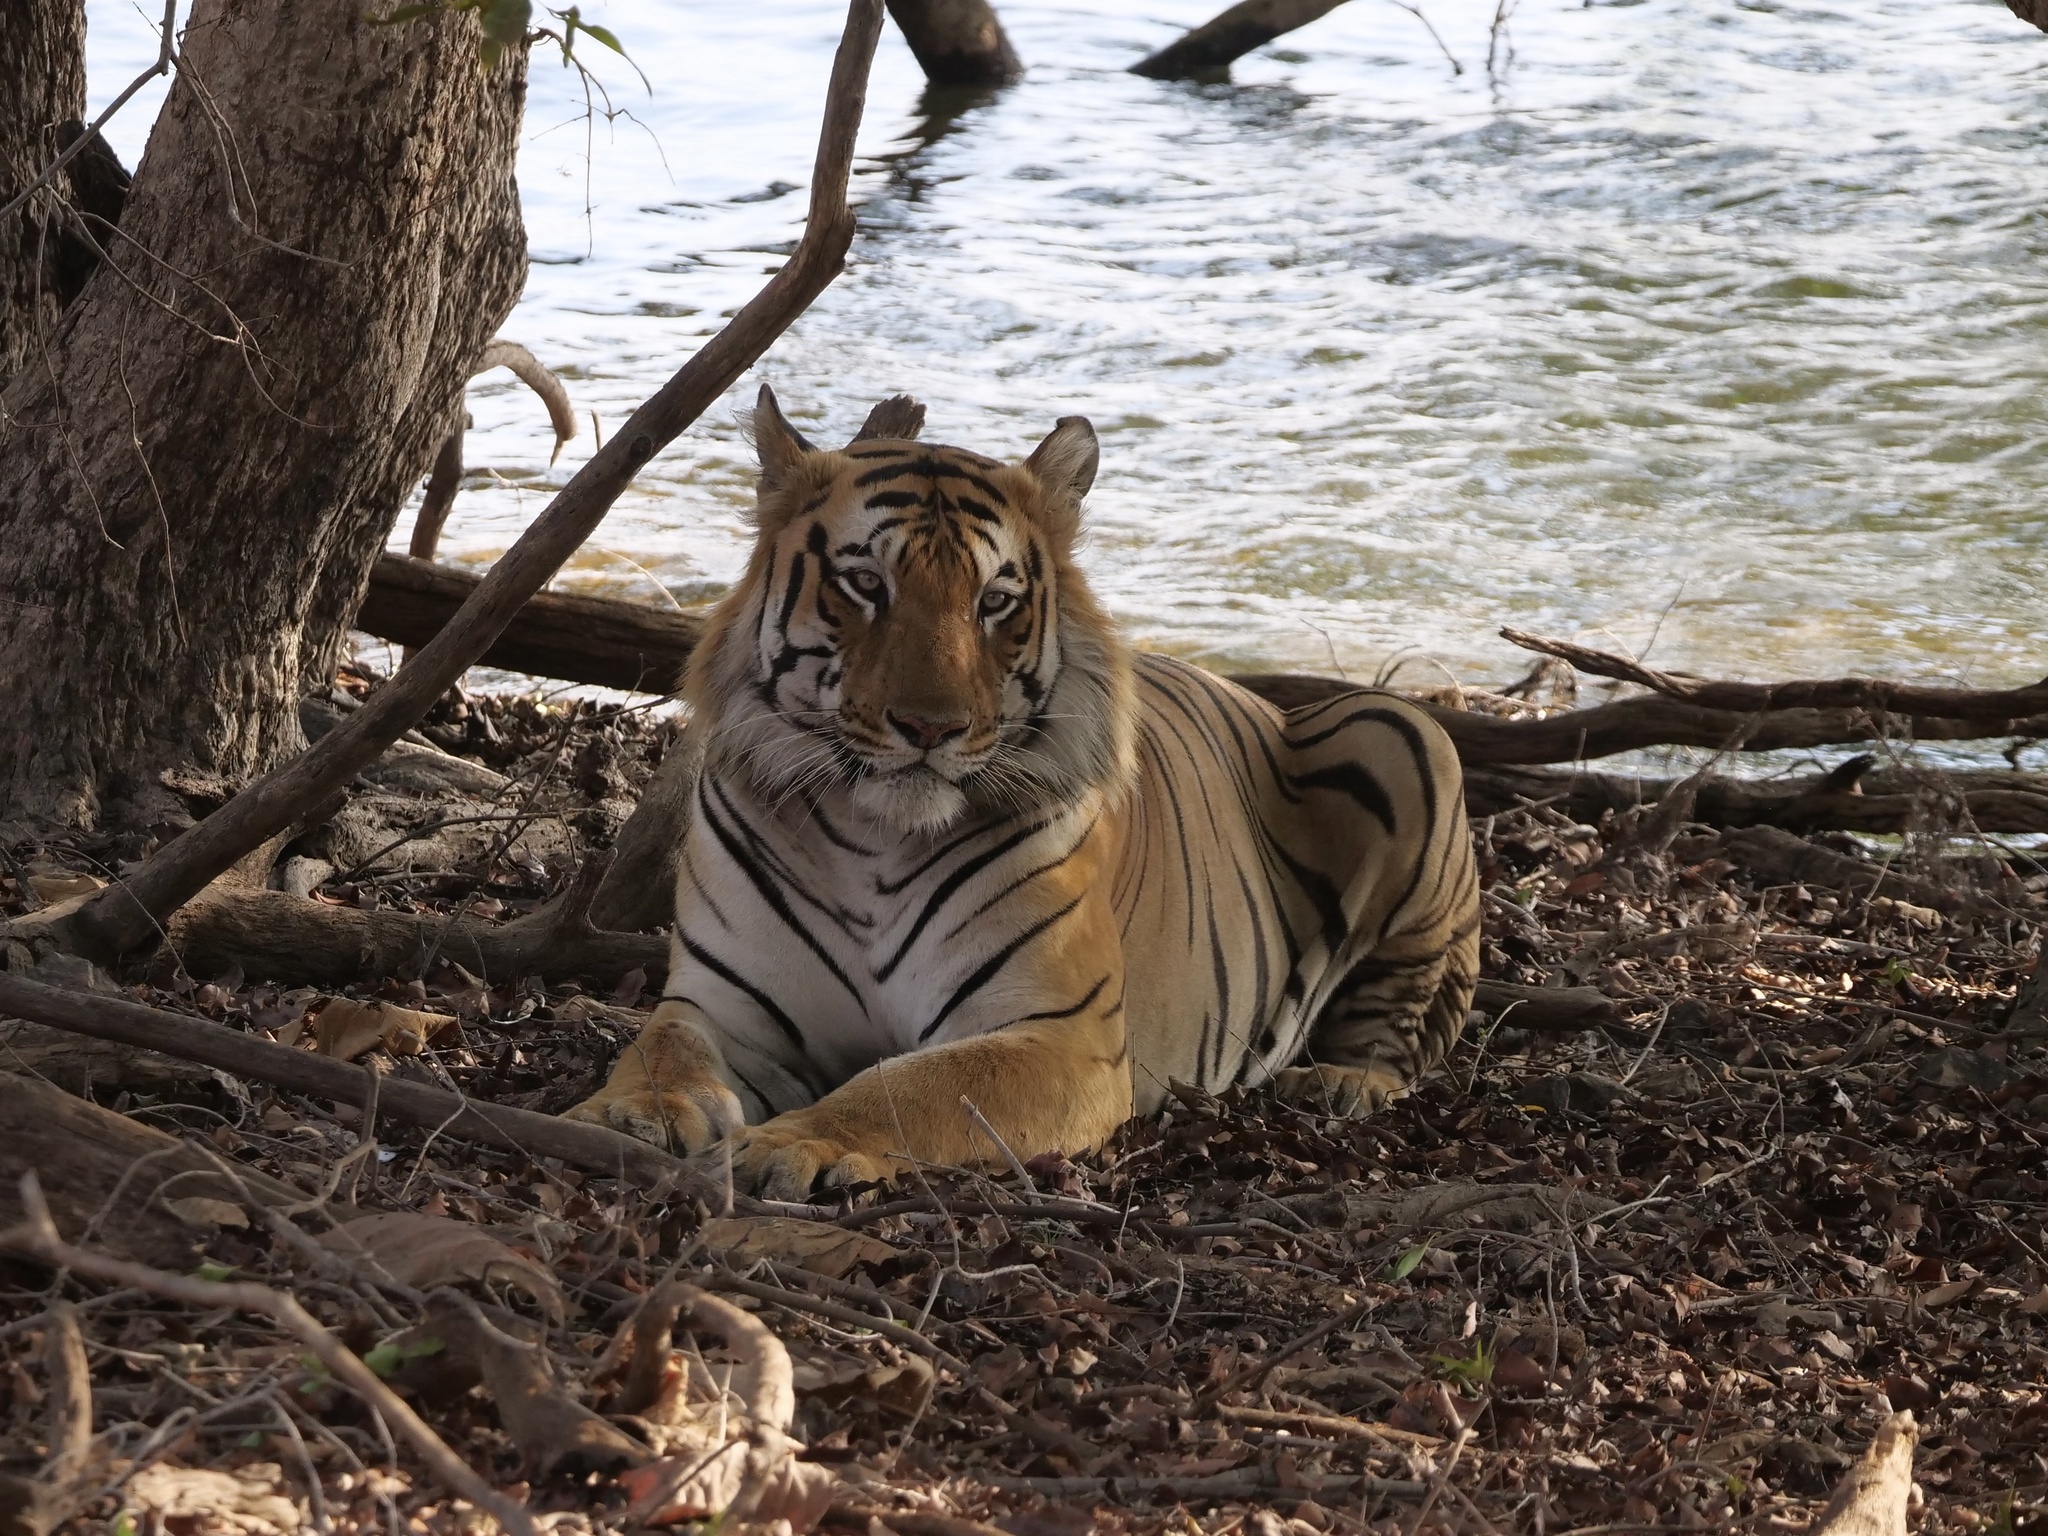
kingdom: Animalia
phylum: Chordata
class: Mammalia
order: Carnivora
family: Felidae
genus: Panthera
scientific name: Panthera tigris
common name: Tiger
